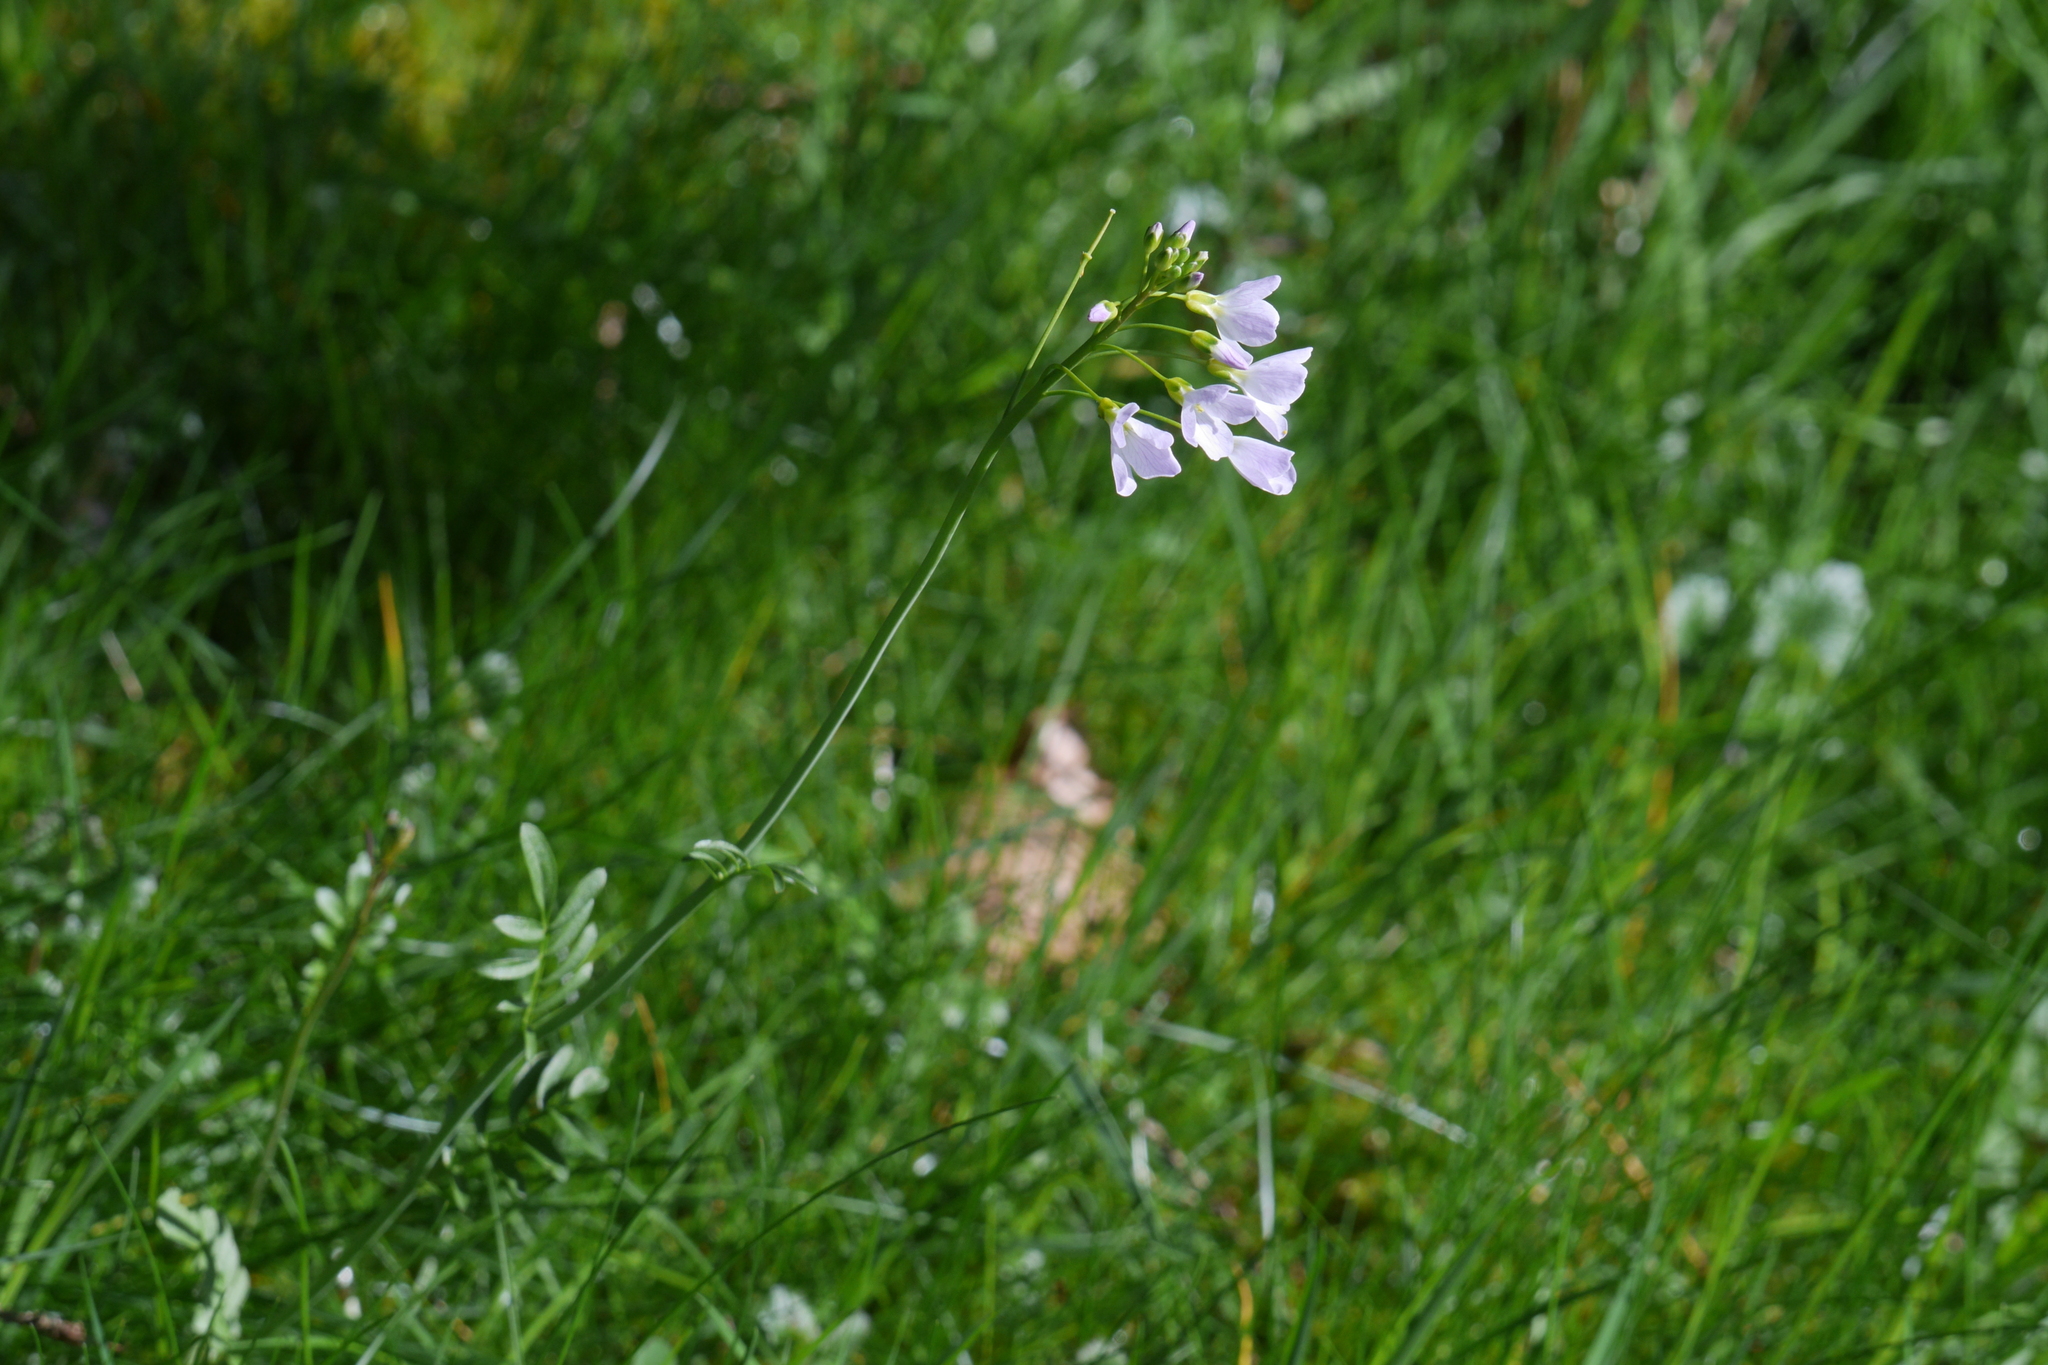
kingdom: Plantae
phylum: Tracheophyta
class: Magnoliopsida
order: Brassicales
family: Brassicaceae
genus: Cardamine
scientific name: Cardamine pratensis
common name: Cuckoo flower
